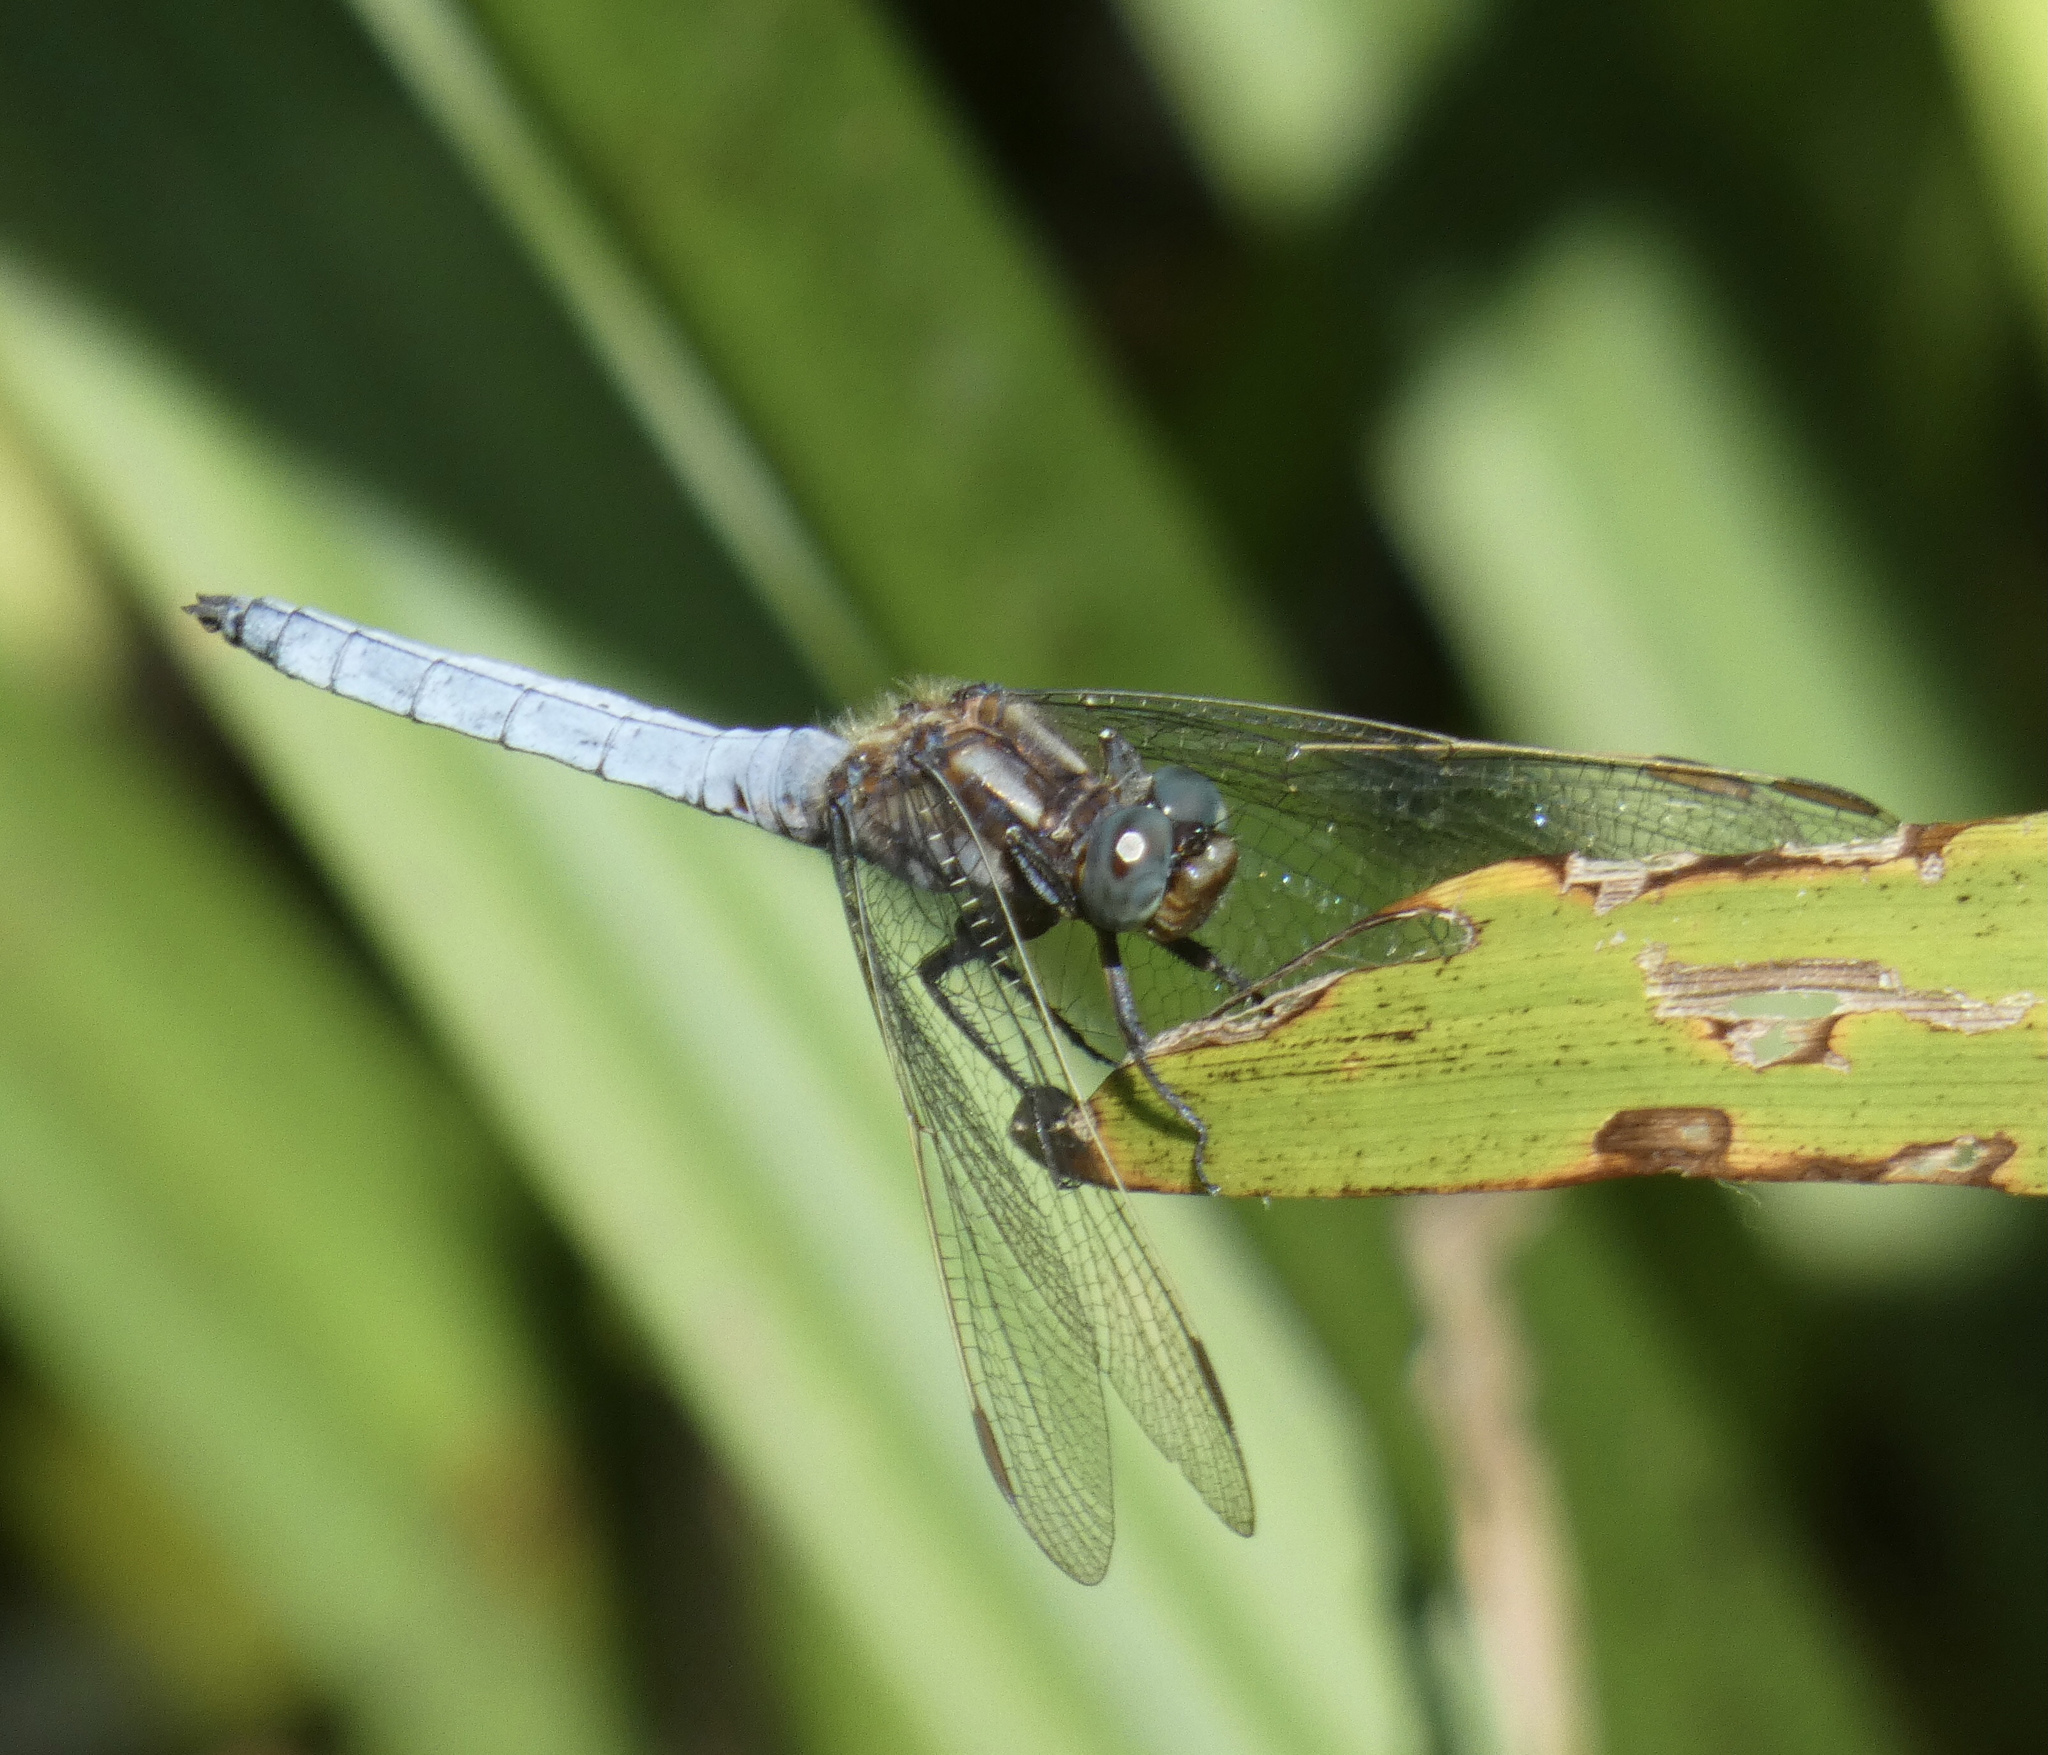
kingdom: Animalia
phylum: Arthropoda
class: Insecta
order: Odonata
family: Libellulidae
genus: Orthetrum
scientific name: Orthetrum coerulescens
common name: Keeled skimmer
